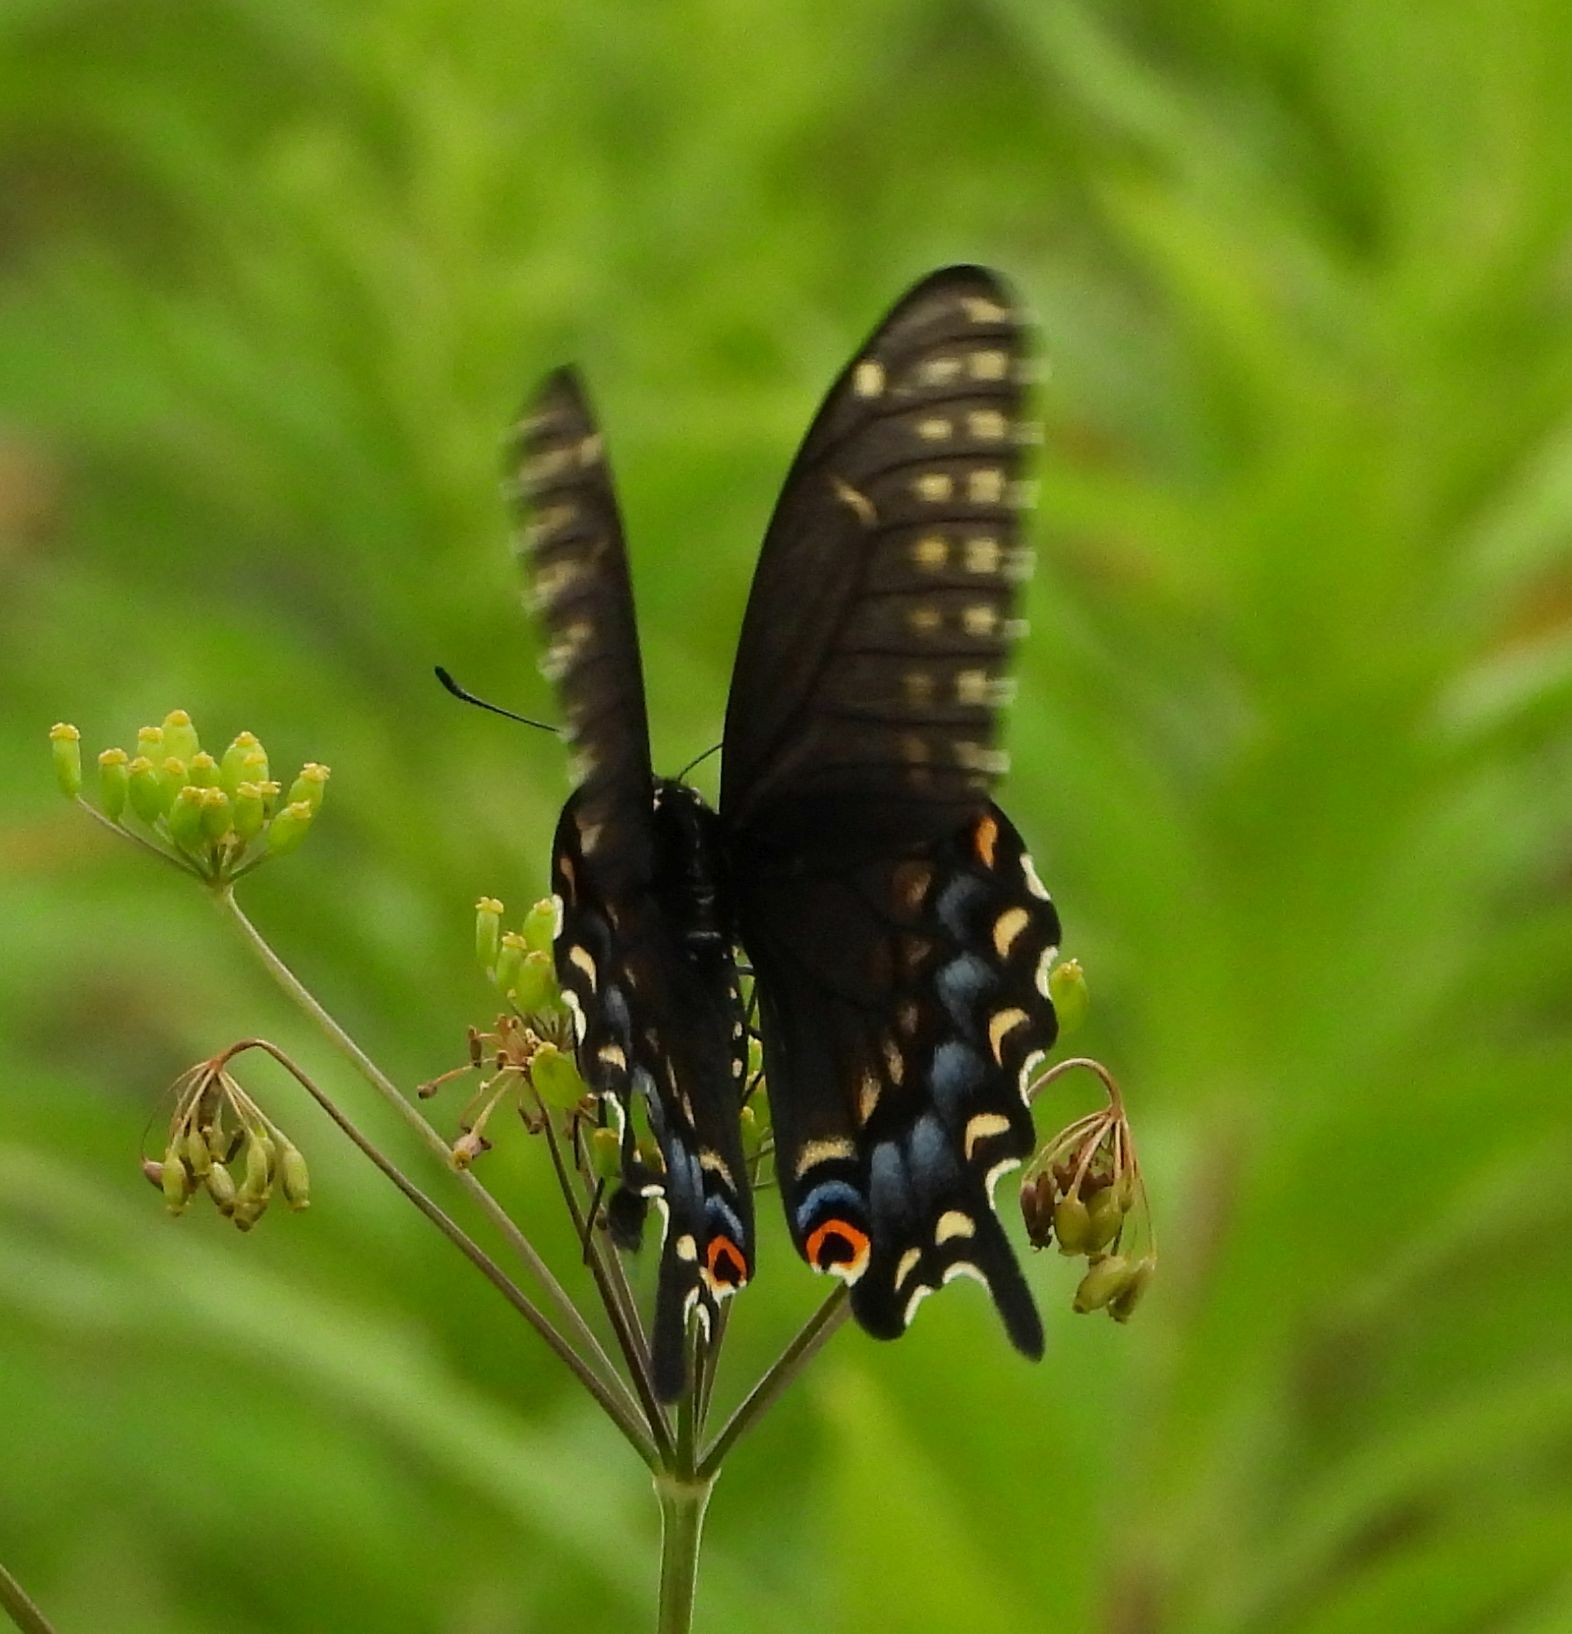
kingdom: Animalia
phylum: Arthropoda
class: Insecta
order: Lepidoptera
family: Papilionidae
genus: Papilio
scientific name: Papilio polyxenes
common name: Black swallowtail
